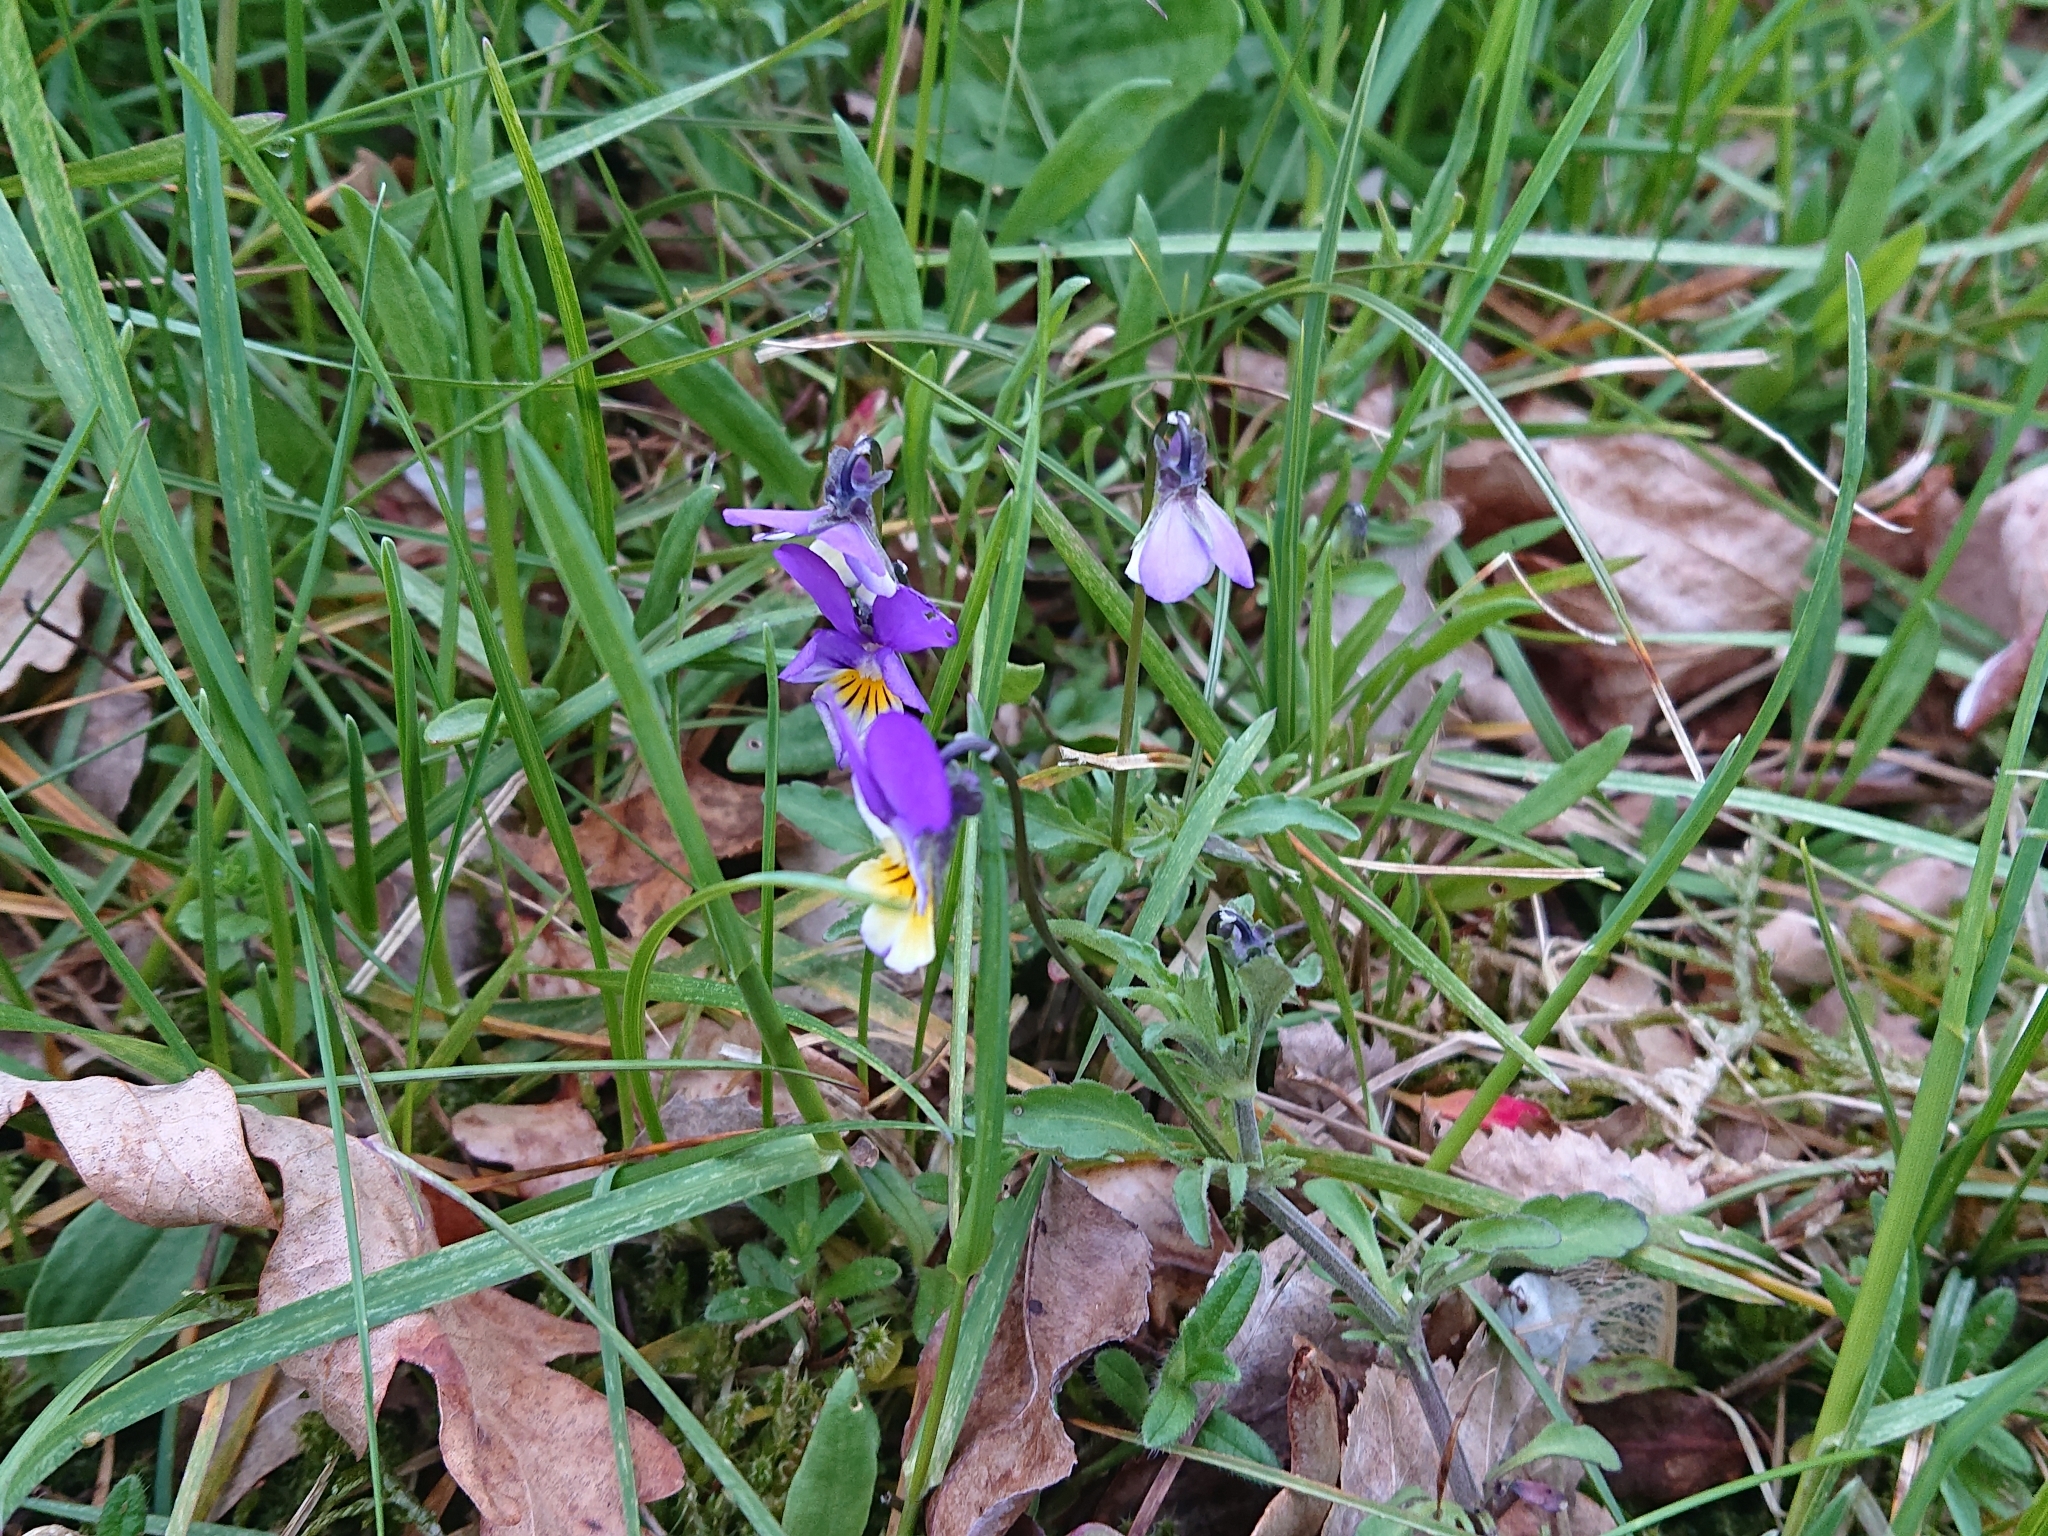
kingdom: Plantae
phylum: Tracheophyta
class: Magnoliopsida
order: Malpighiales
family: Violaceae
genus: Viola
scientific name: Viola tricolor
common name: Pansy
